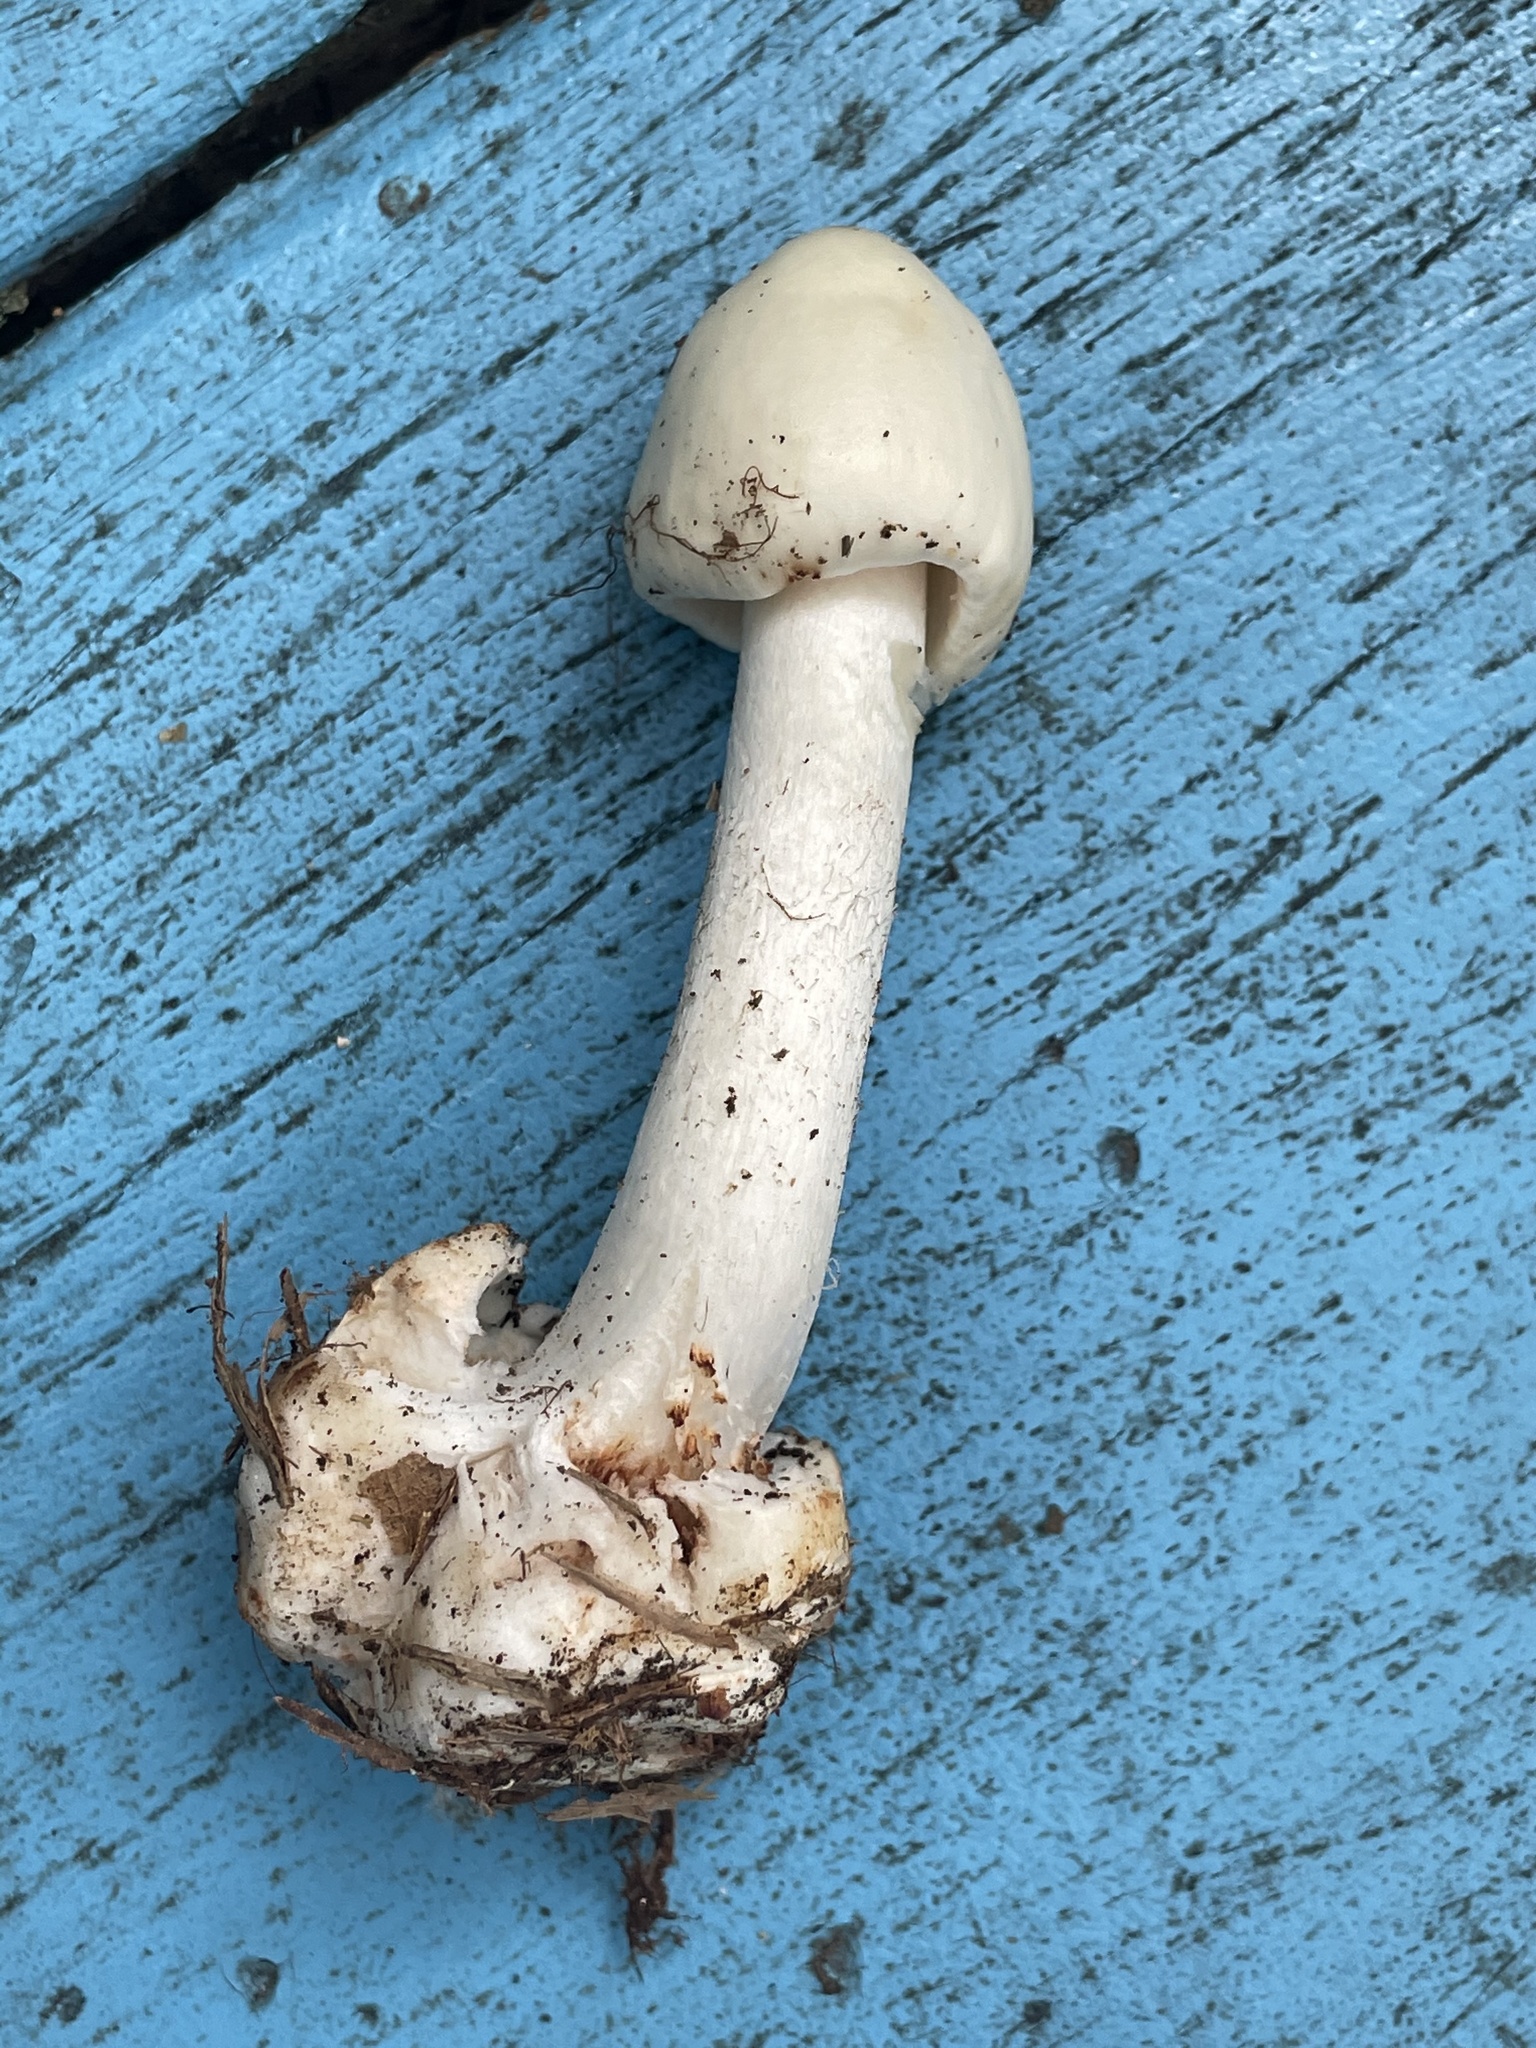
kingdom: Fungi
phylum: Basidiomycota
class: Agaricomycetes
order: Agaricales
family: Amanitaceae
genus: Amanita
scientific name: Amanita brunnescens
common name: Brown american star-footed amanita
